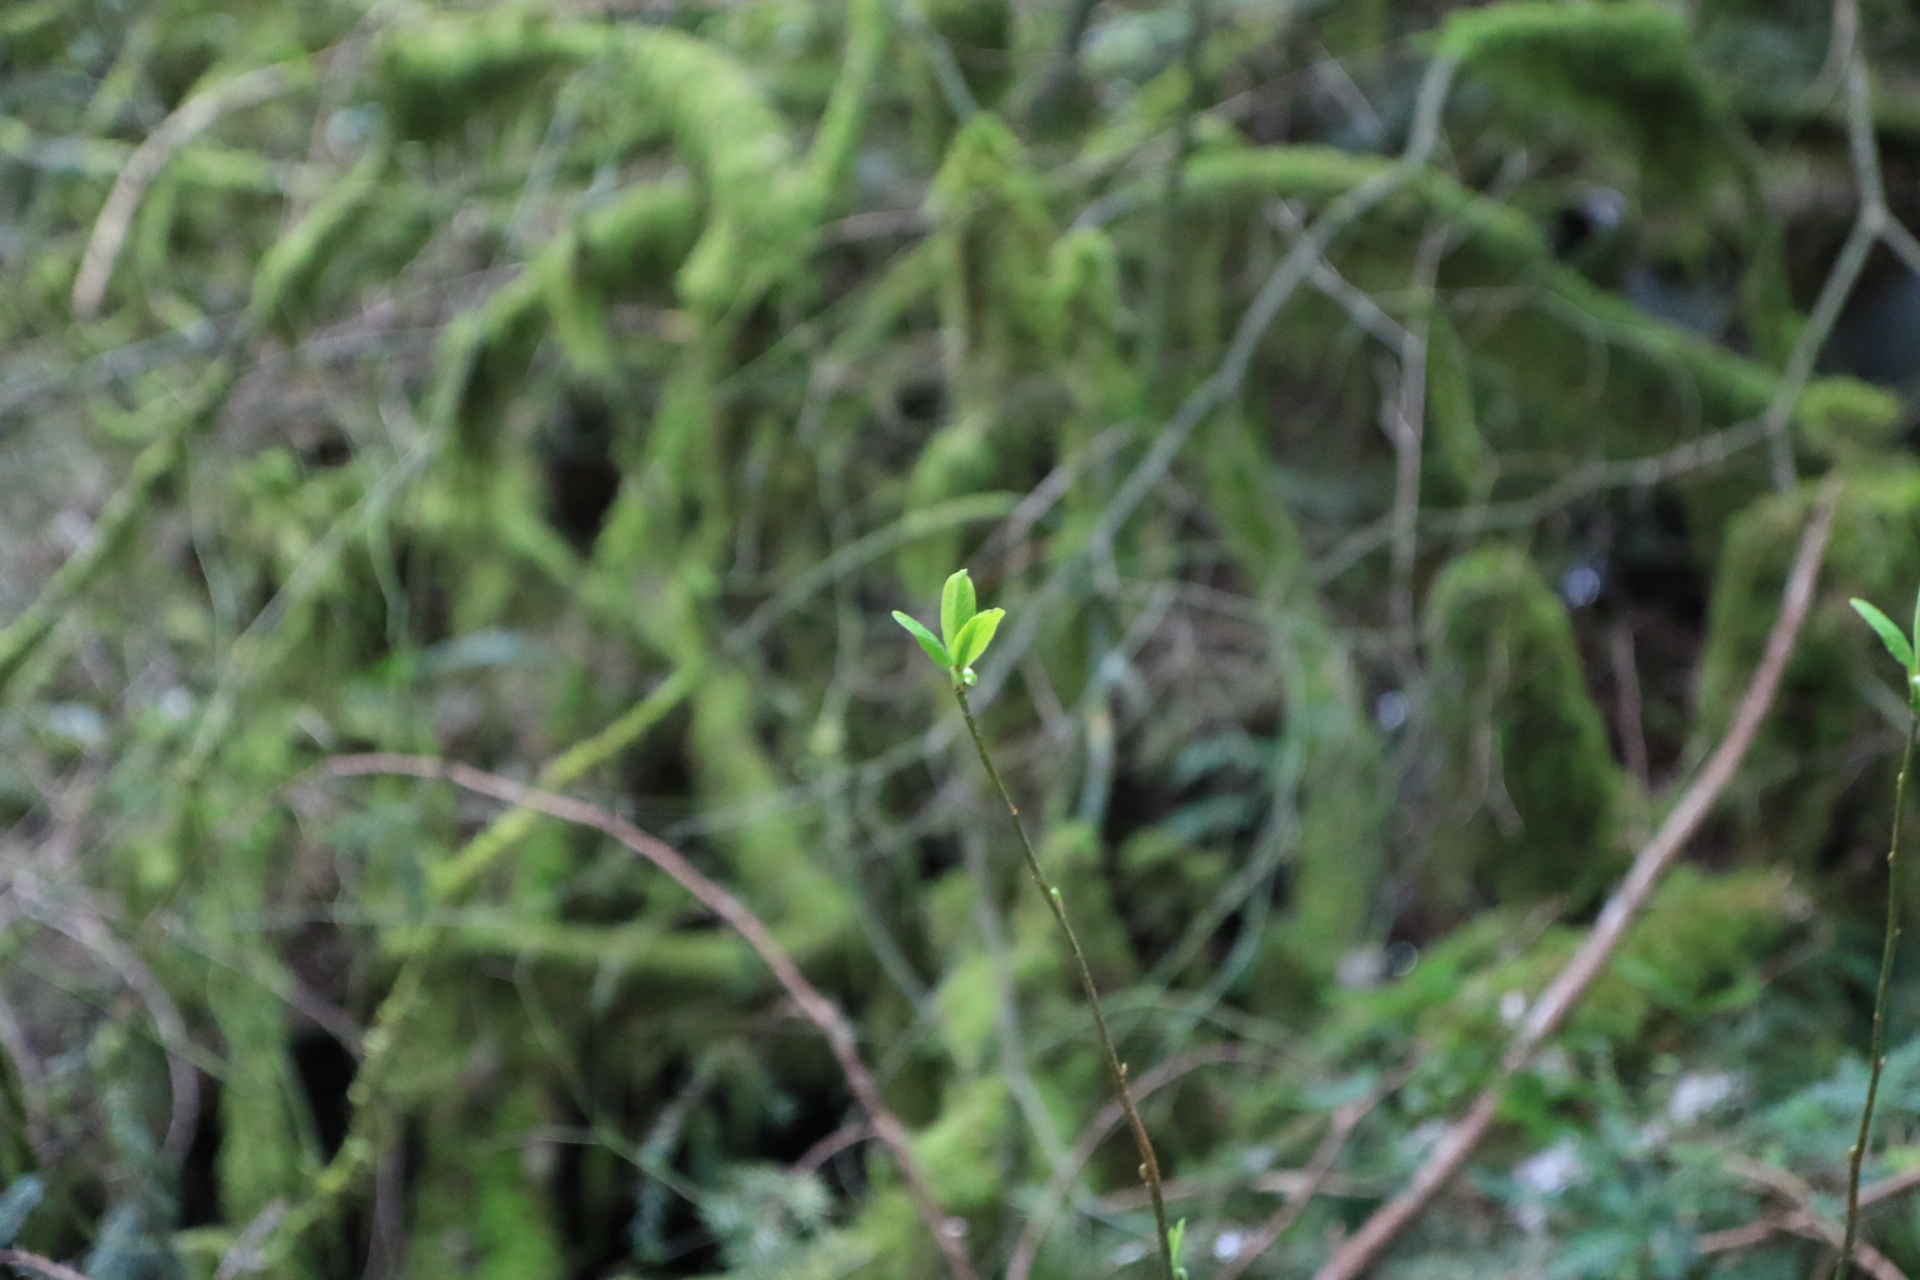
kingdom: Plantae
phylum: Tracheophyta
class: Magnoliopsida
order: Rosales
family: Rosaceae
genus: Oemleria
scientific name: Oemleria cerasiformis
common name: Osoberry
